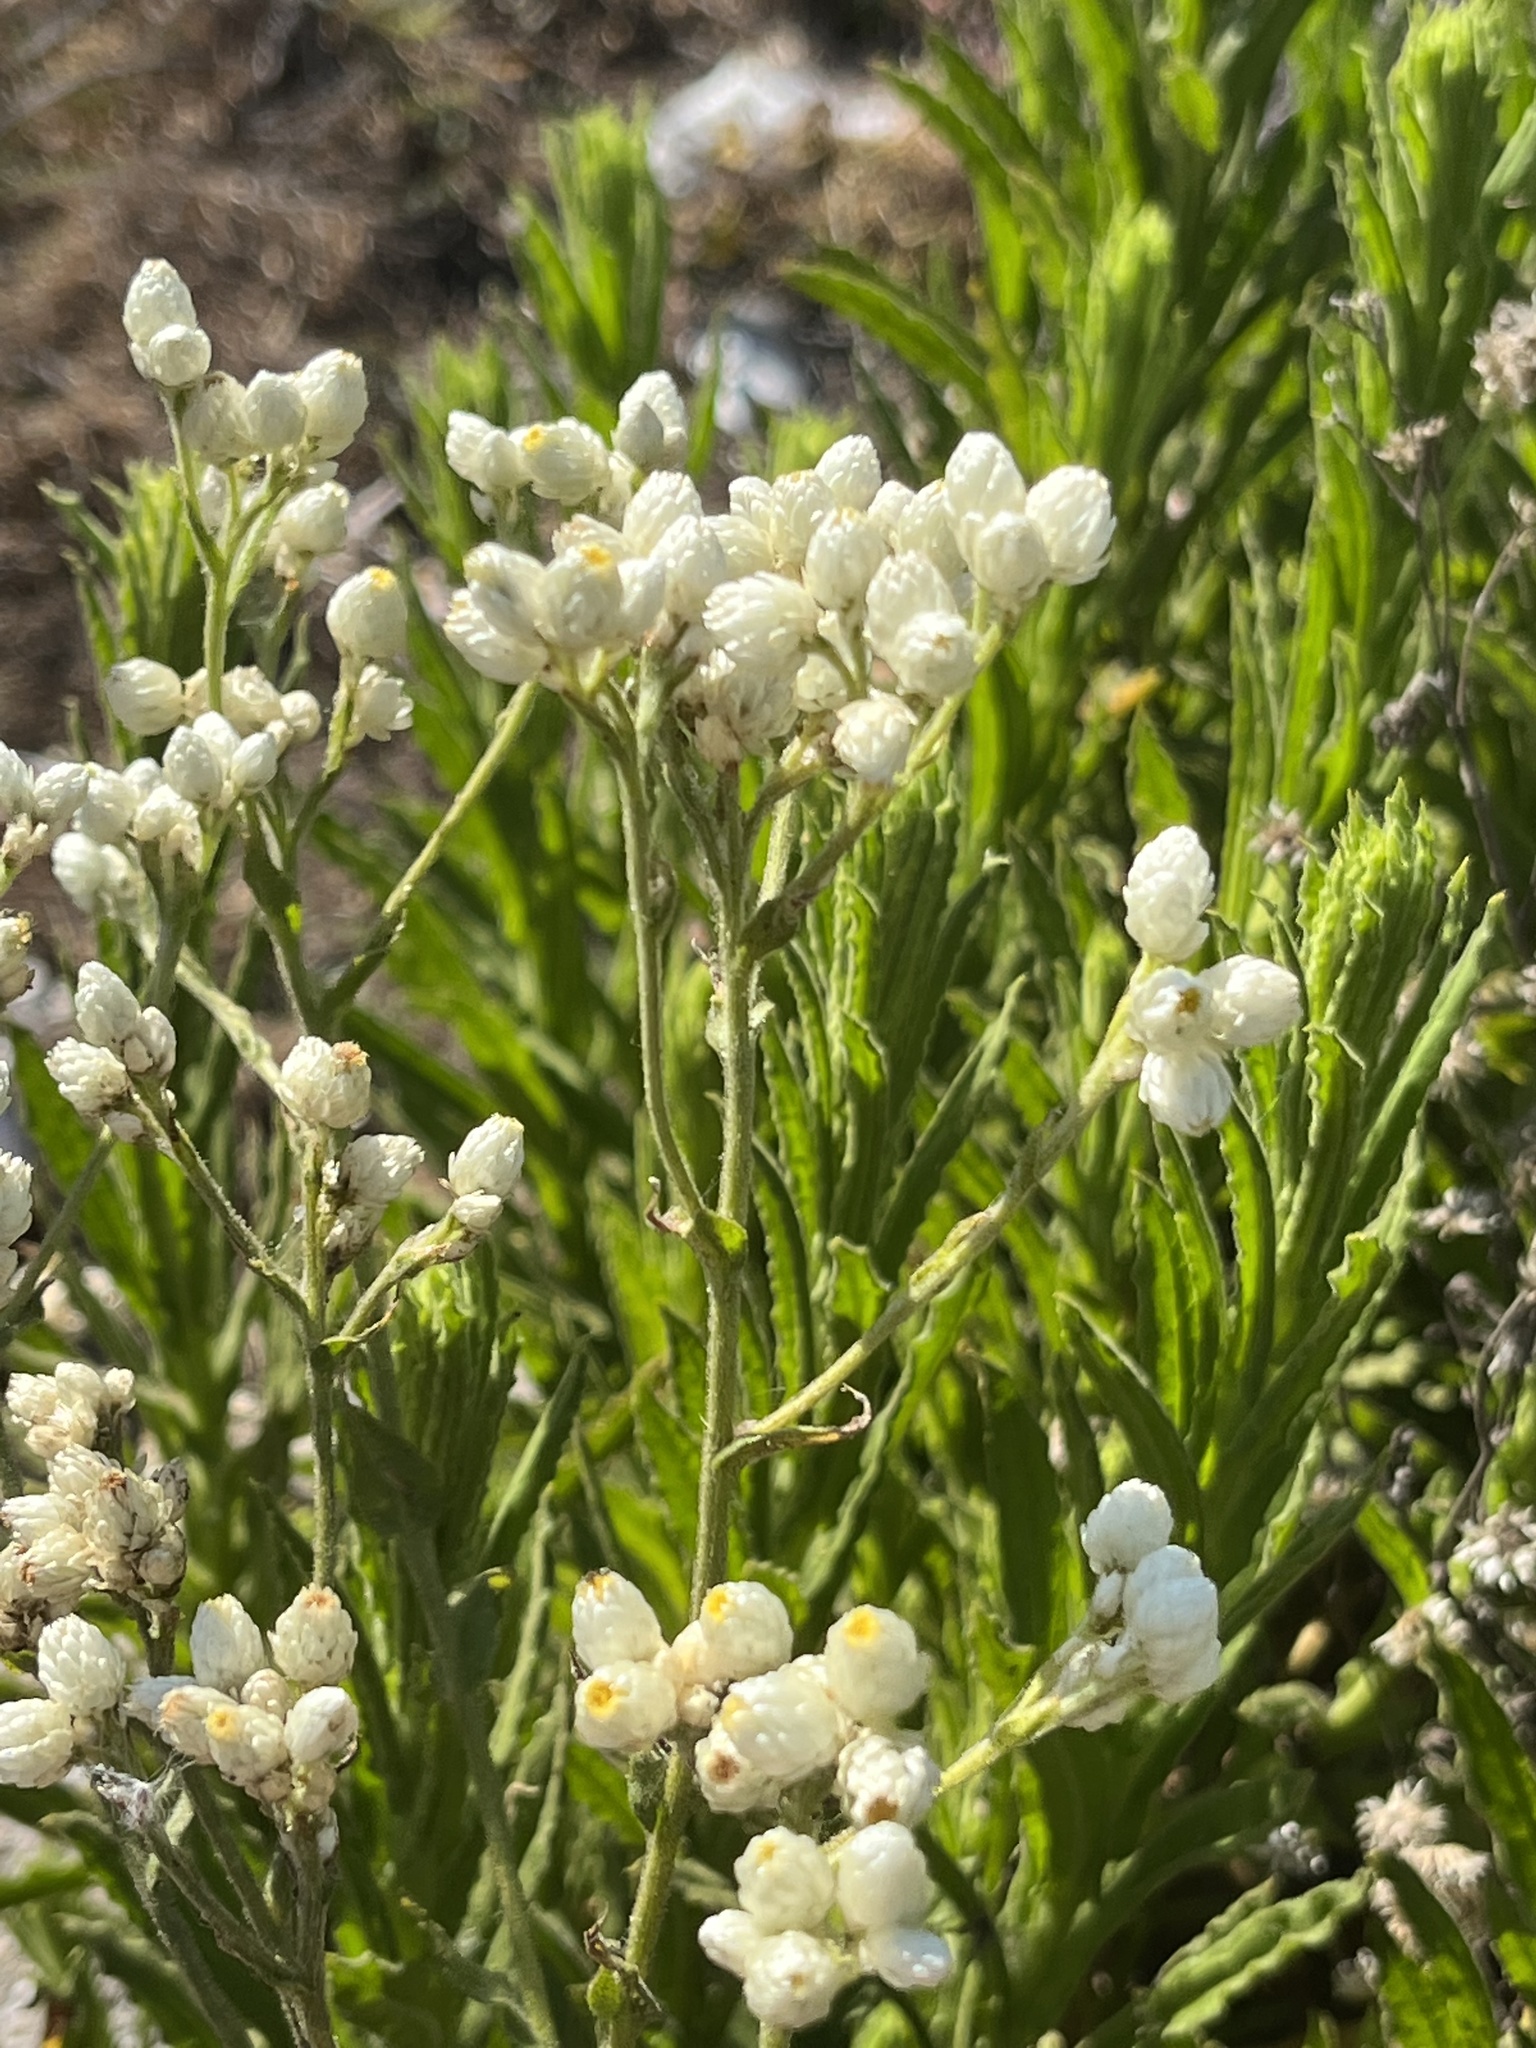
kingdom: Plantae
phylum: Tracheophyta
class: Magnoliopsida
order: Asterales
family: Asteraceae
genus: Pseudognaphalium
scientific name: Pseudognaphalium californicum
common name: California rabbit-tobacco
